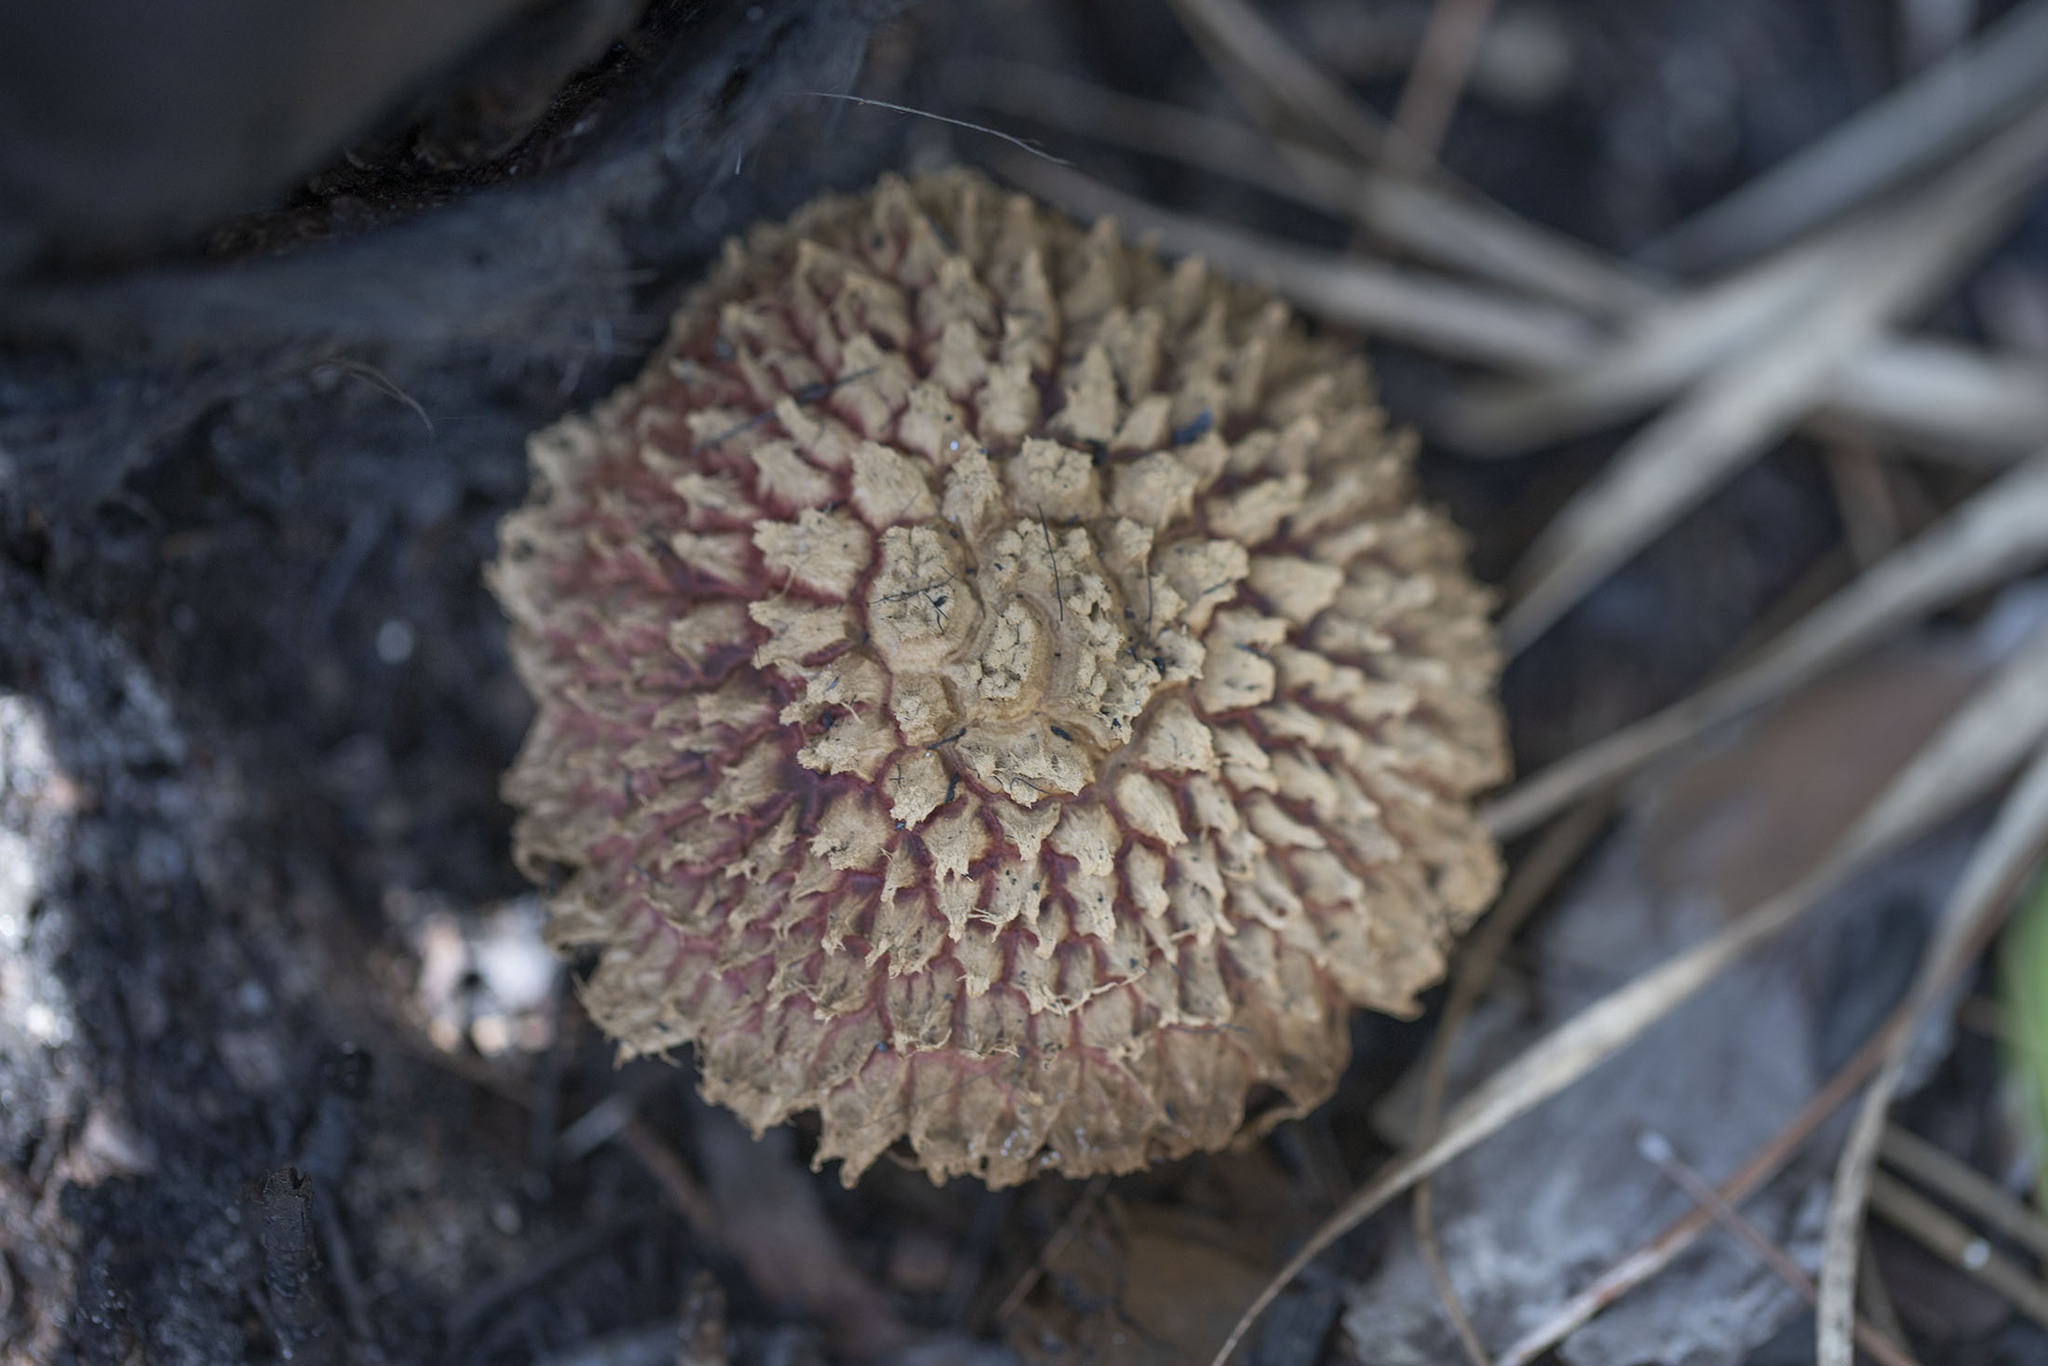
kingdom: Fungi
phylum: Basidiomycota
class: Agaricomycetes
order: Boletales
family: Boletaceae
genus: Boletellus
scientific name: Boletellus ananas
